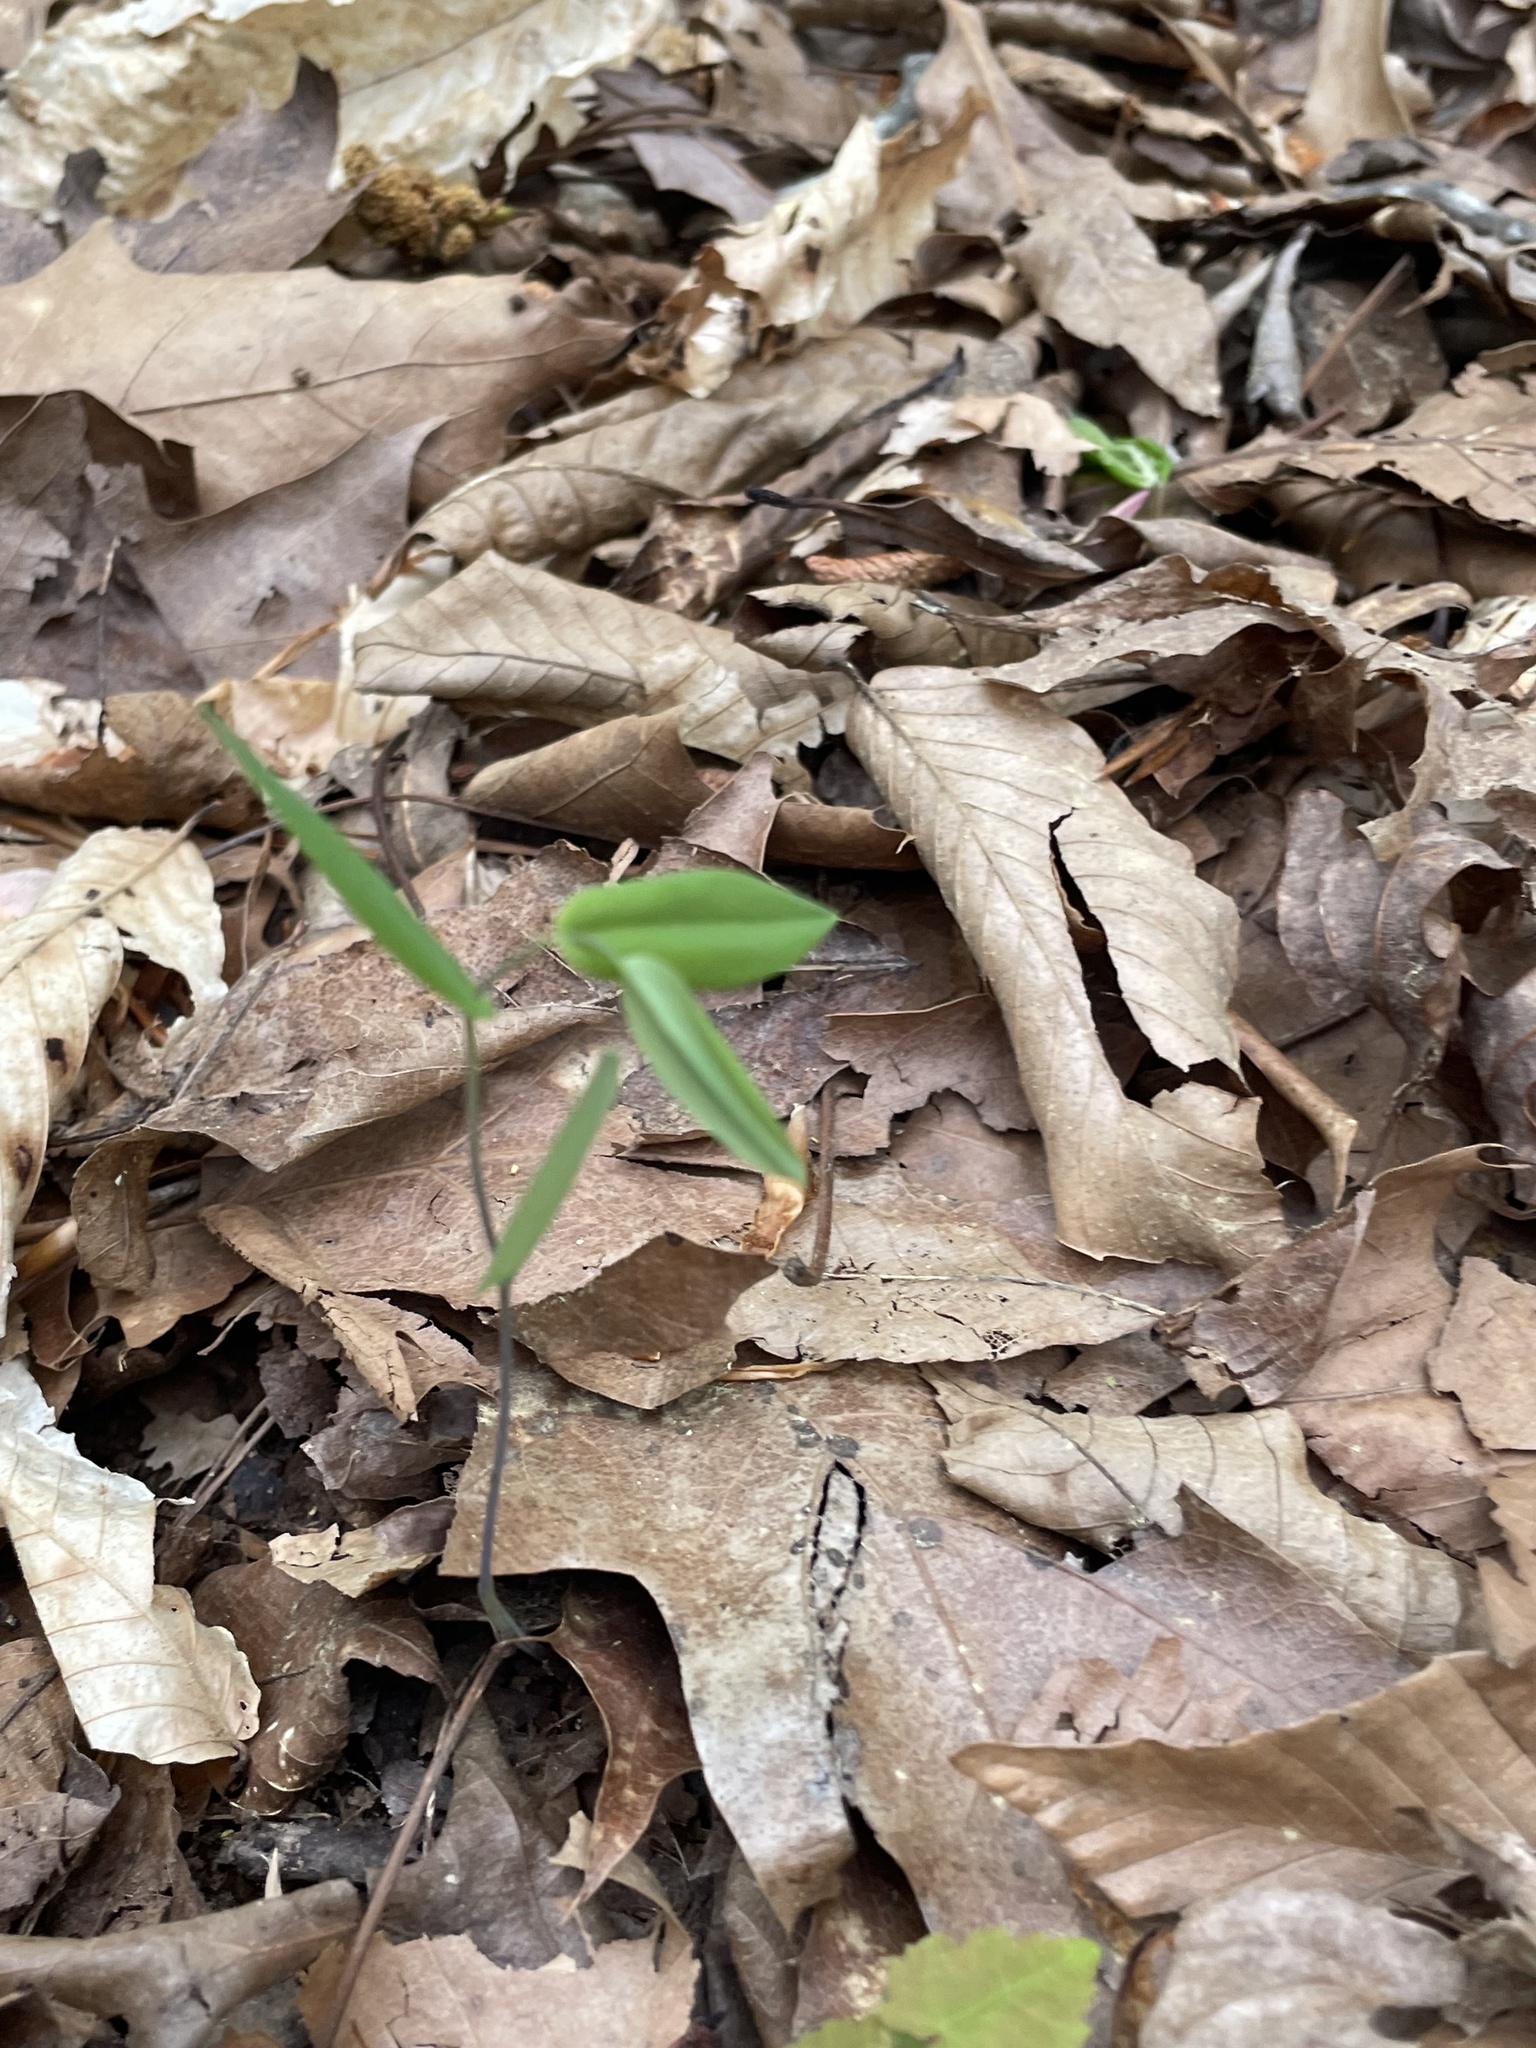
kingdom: Plantae
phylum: Tracheophyta
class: Liliopsida
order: Liliales
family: Colchicaceae
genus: Uvularia
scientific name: Uvularia perfoliata
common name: Perfoliate bellwort
